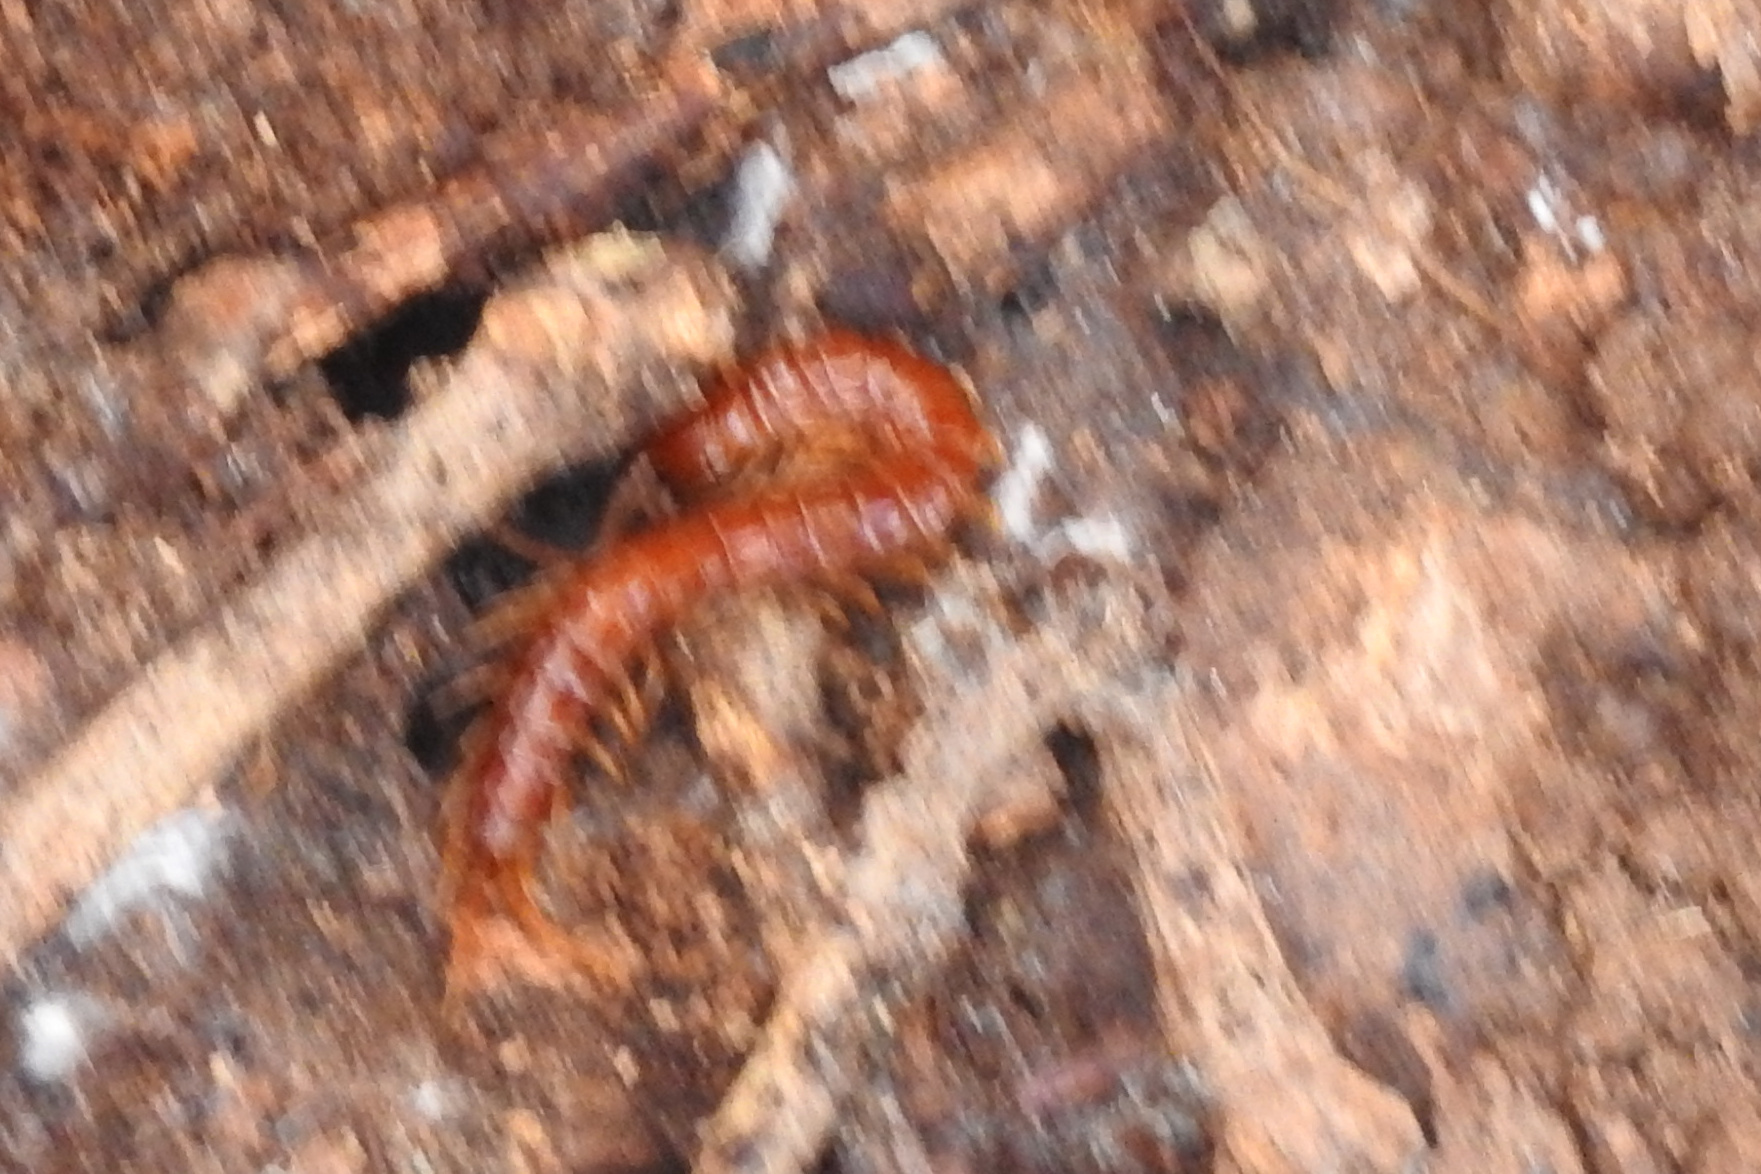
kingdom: Animalia
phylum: Arthropoda
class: Chilopoda
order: Scolopendromorpha
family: Scolopocryptopidae
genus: Scolopocryptops
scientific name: Scolopocryptops sexspinosus
